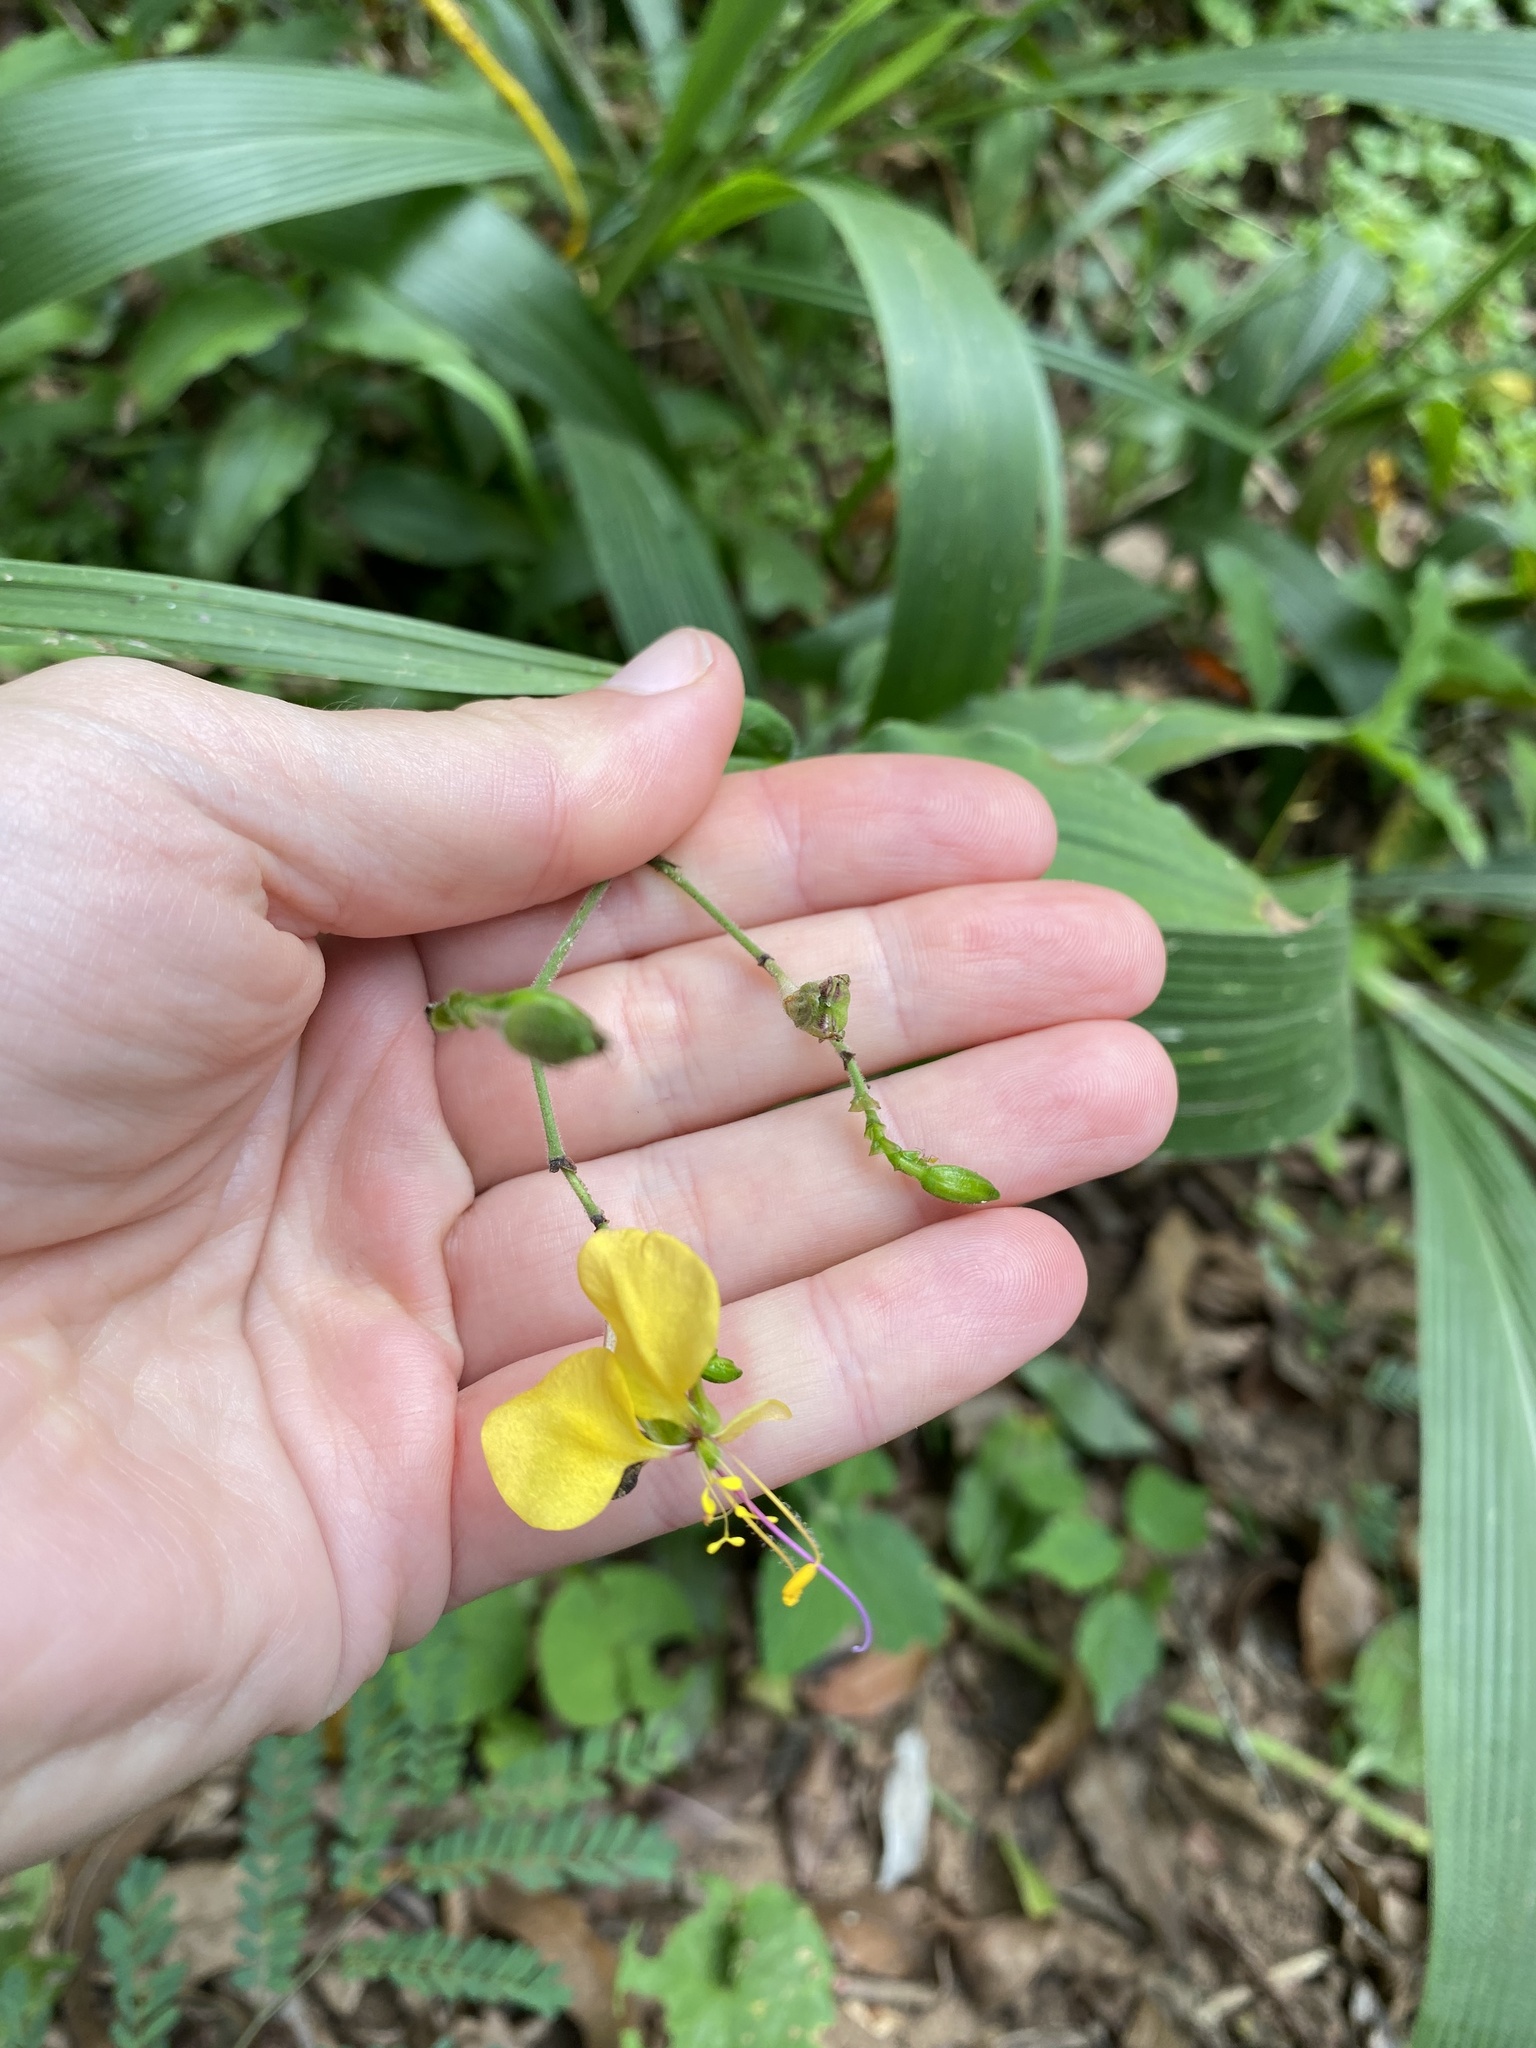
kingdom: Plantae
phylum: Tracheophyta
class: Liliopsida
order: Commelinales
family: Commelinaceae
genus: Aneilema
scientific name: Aneilema aequinoctiale
